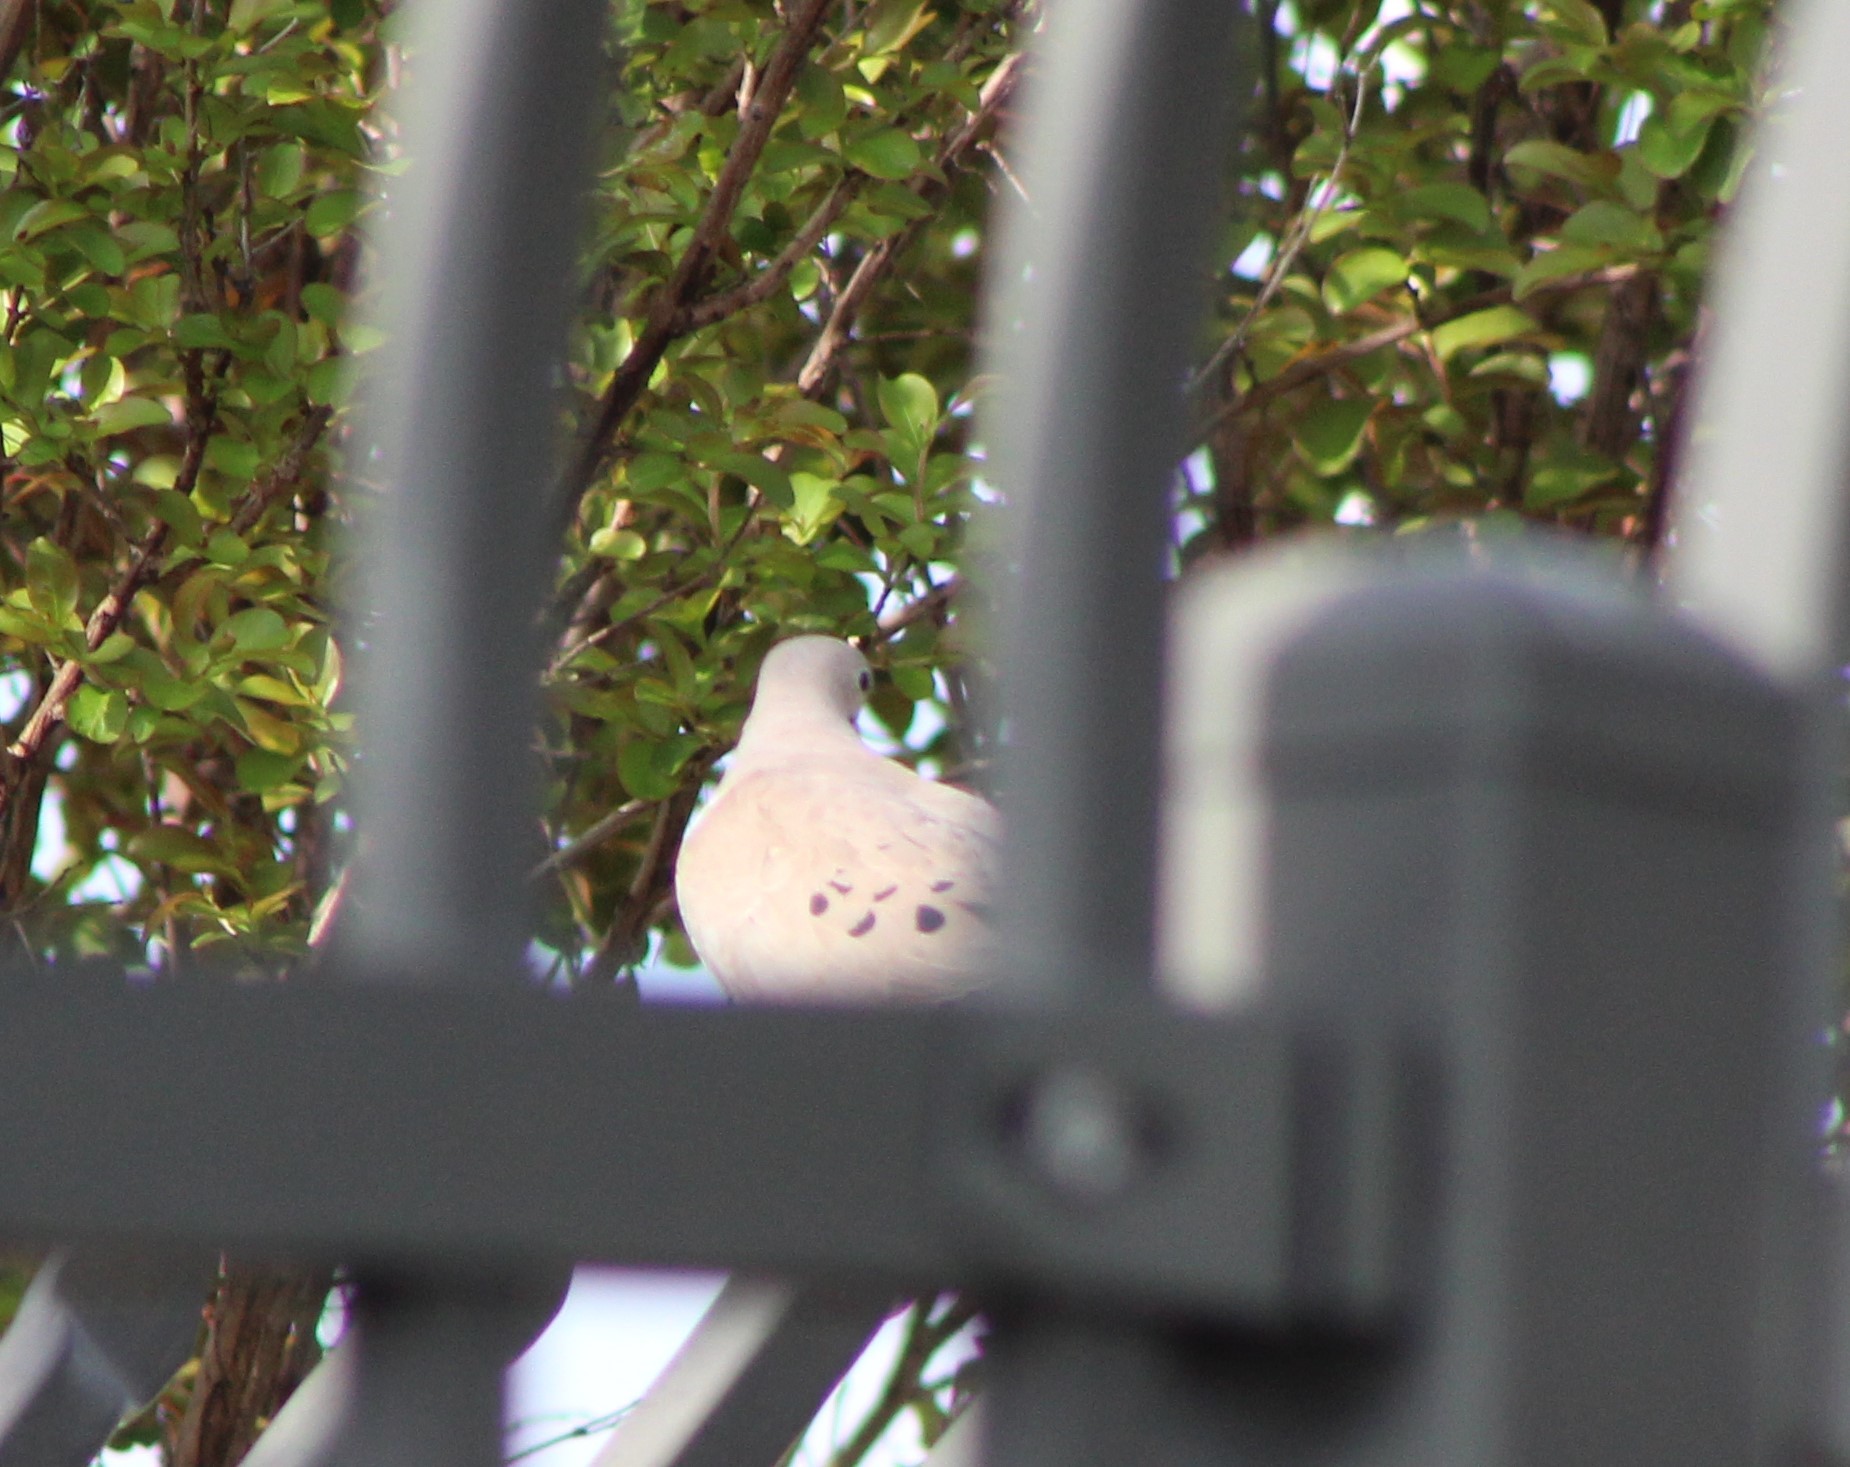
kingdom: Animalia
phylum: Chordata
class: Aves
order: Columbiformes
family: Columbidae
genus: Zenaida
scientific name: Zenaida macroura
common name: Mourning dove
